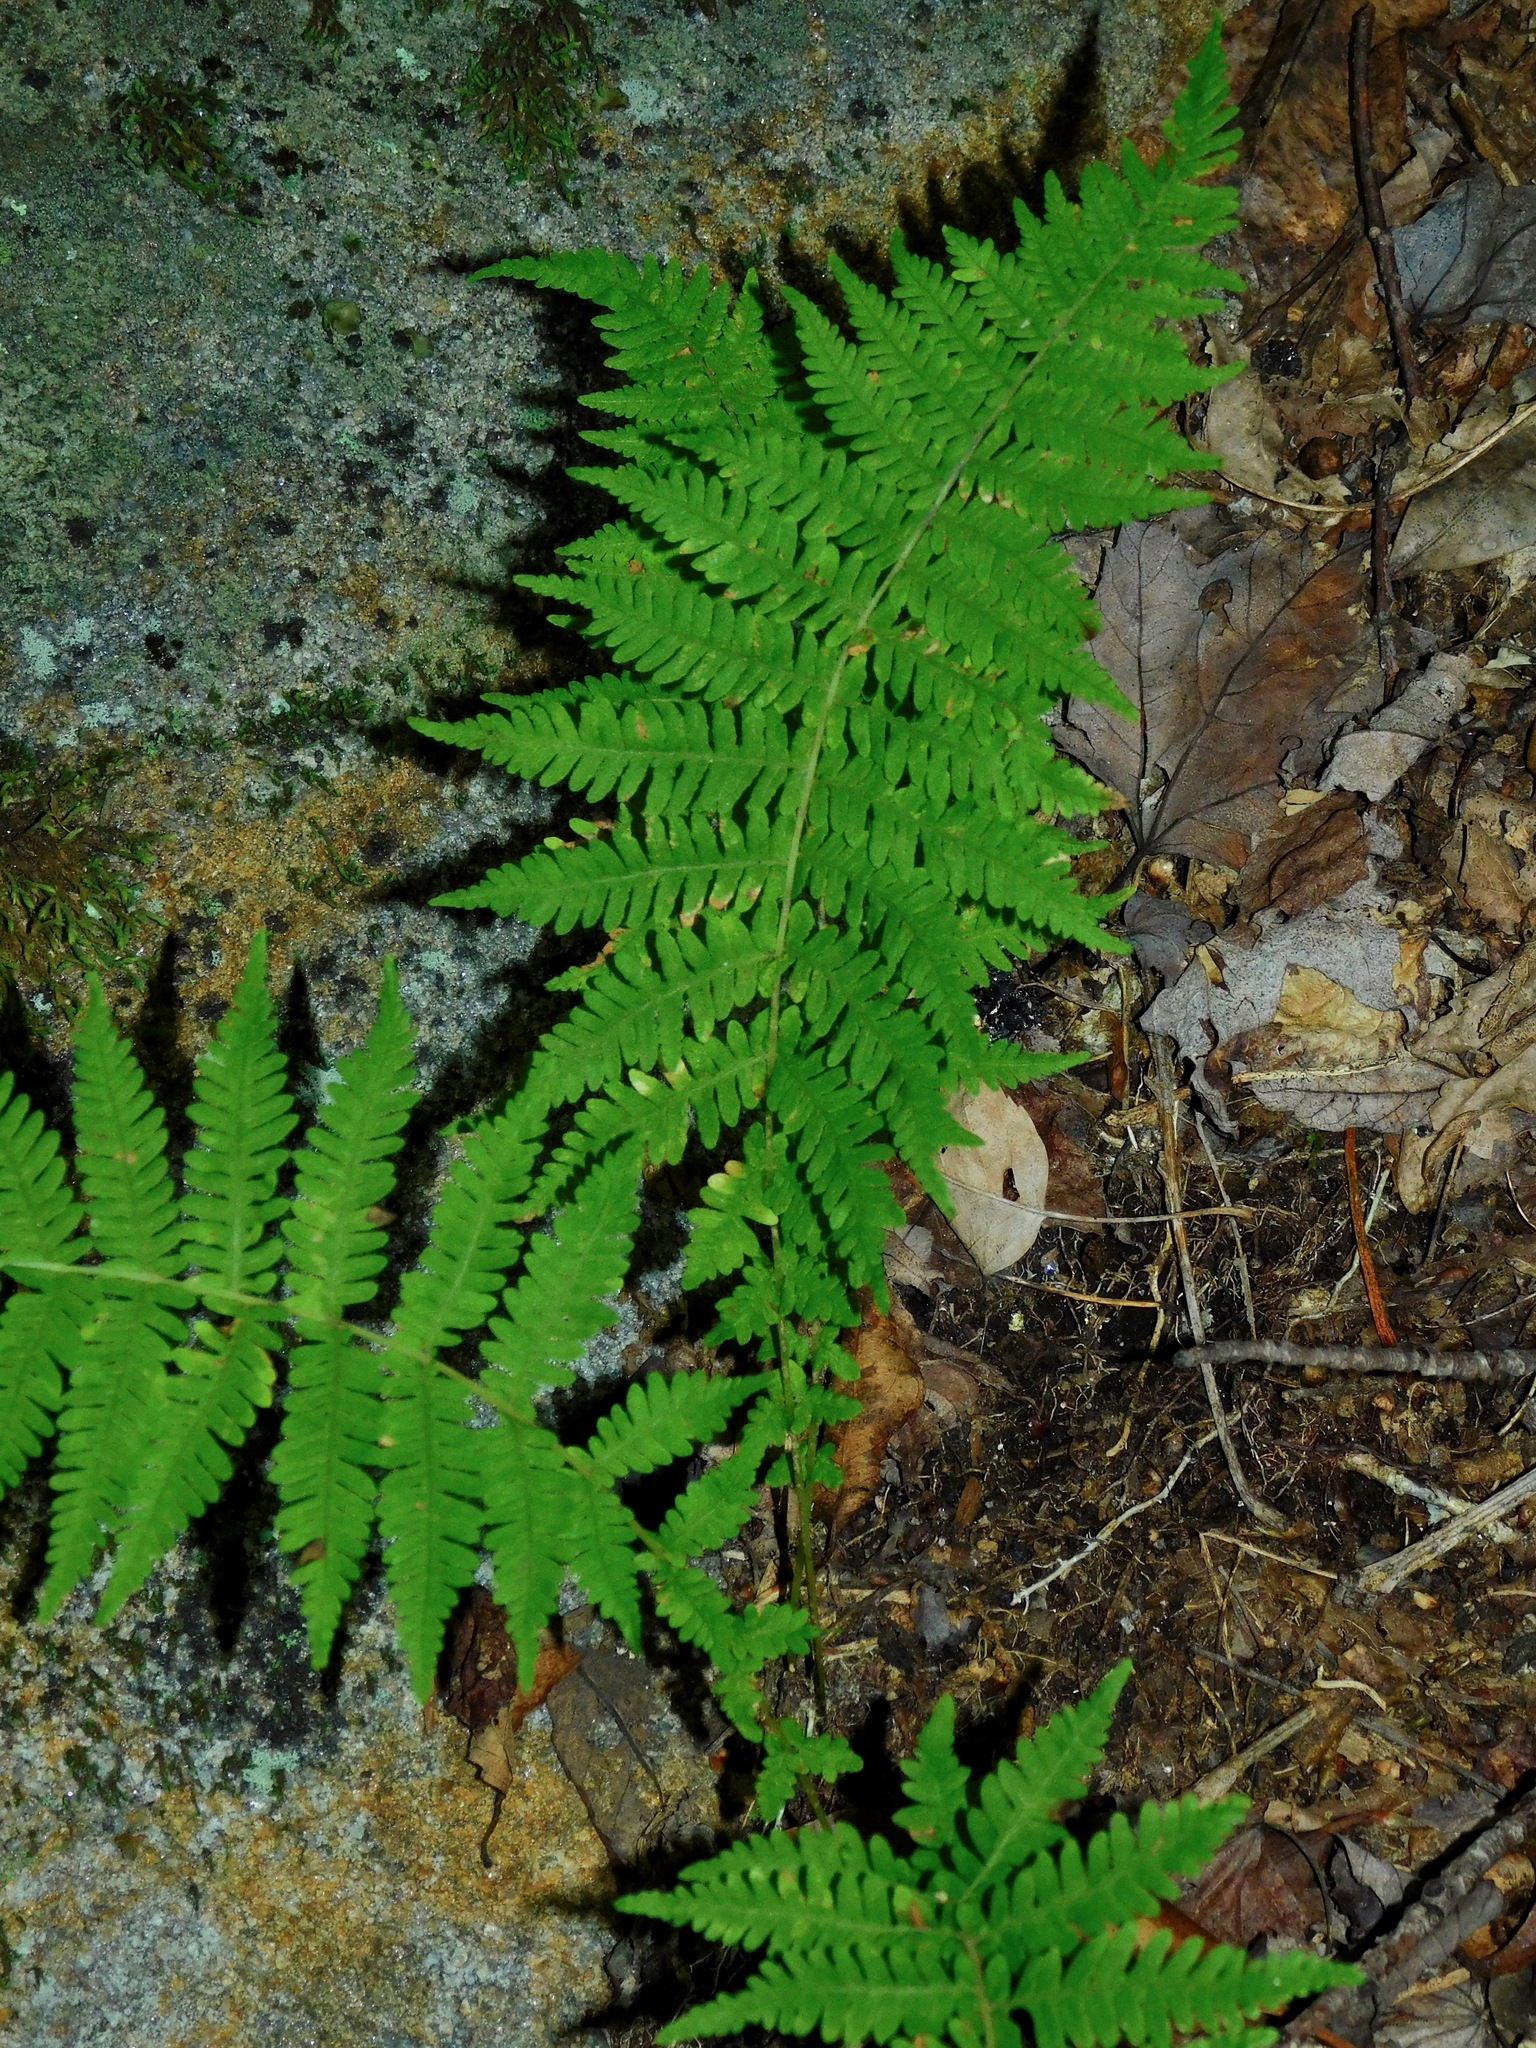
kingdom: Plantae
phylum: Tracheophyta
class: Polypodiopsida
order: Polypodiales
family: Thelypteridaceae
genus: Amauropelta
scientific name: Amauropelta noveboracensis
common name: New york fern
